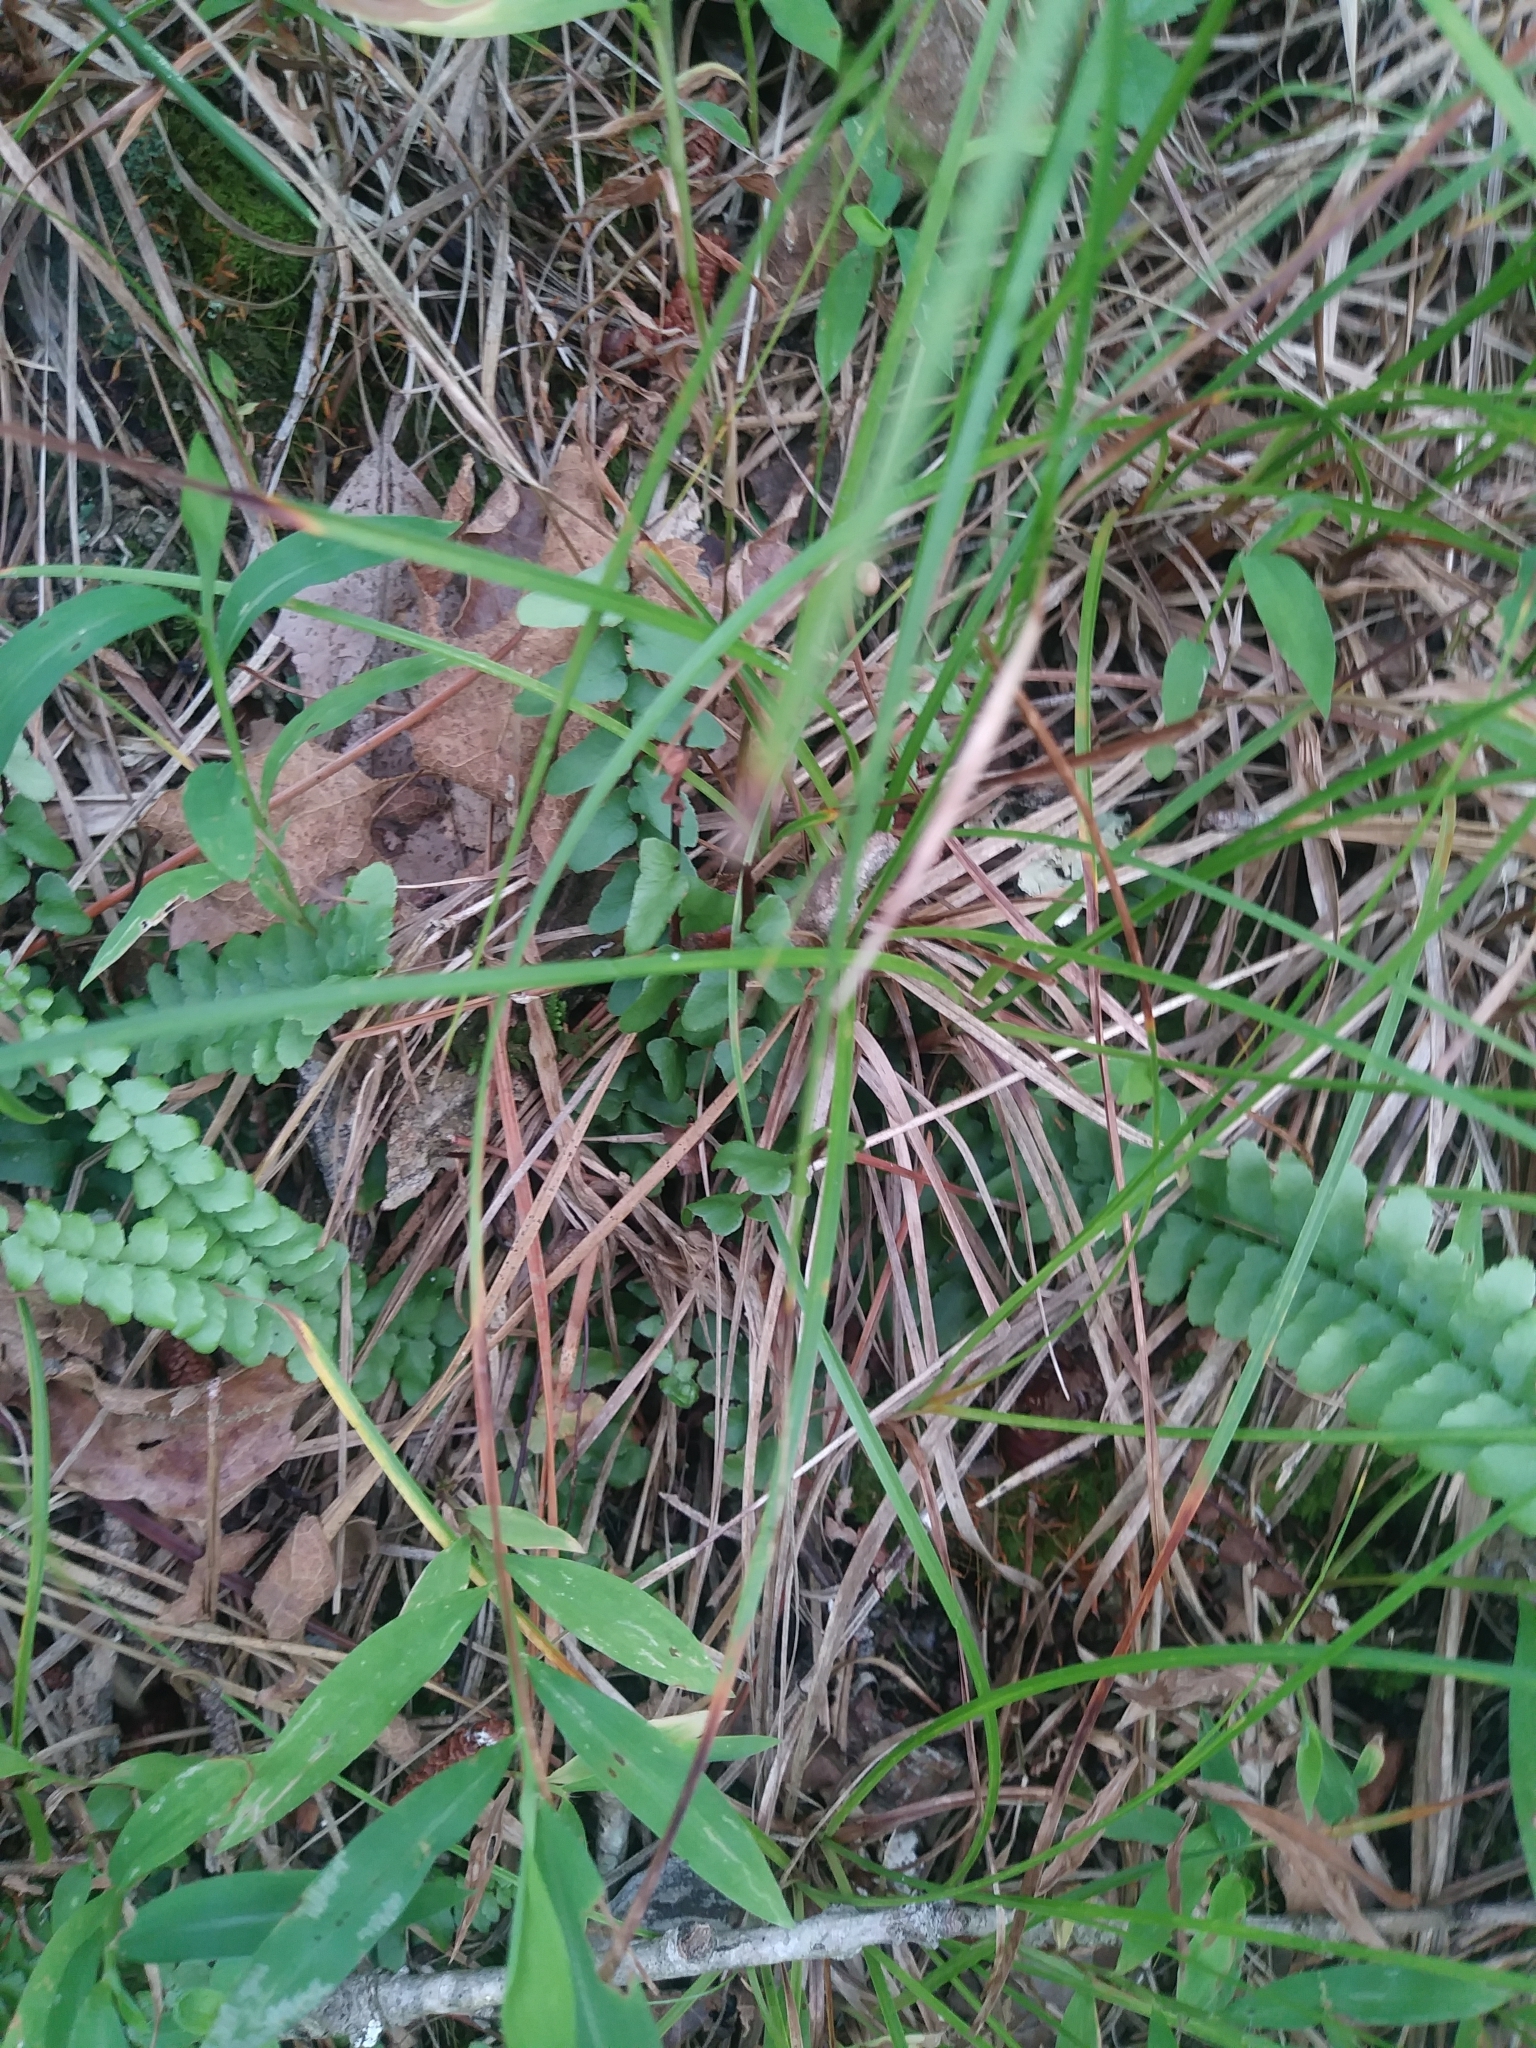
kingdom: Plantae
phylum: Tracheophyta
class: Polypodiopsida
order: Polypodiales
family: Aspleniaceae
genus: Asplenium
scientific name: Asplenium platyneuron
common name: Ebony spleenwort
